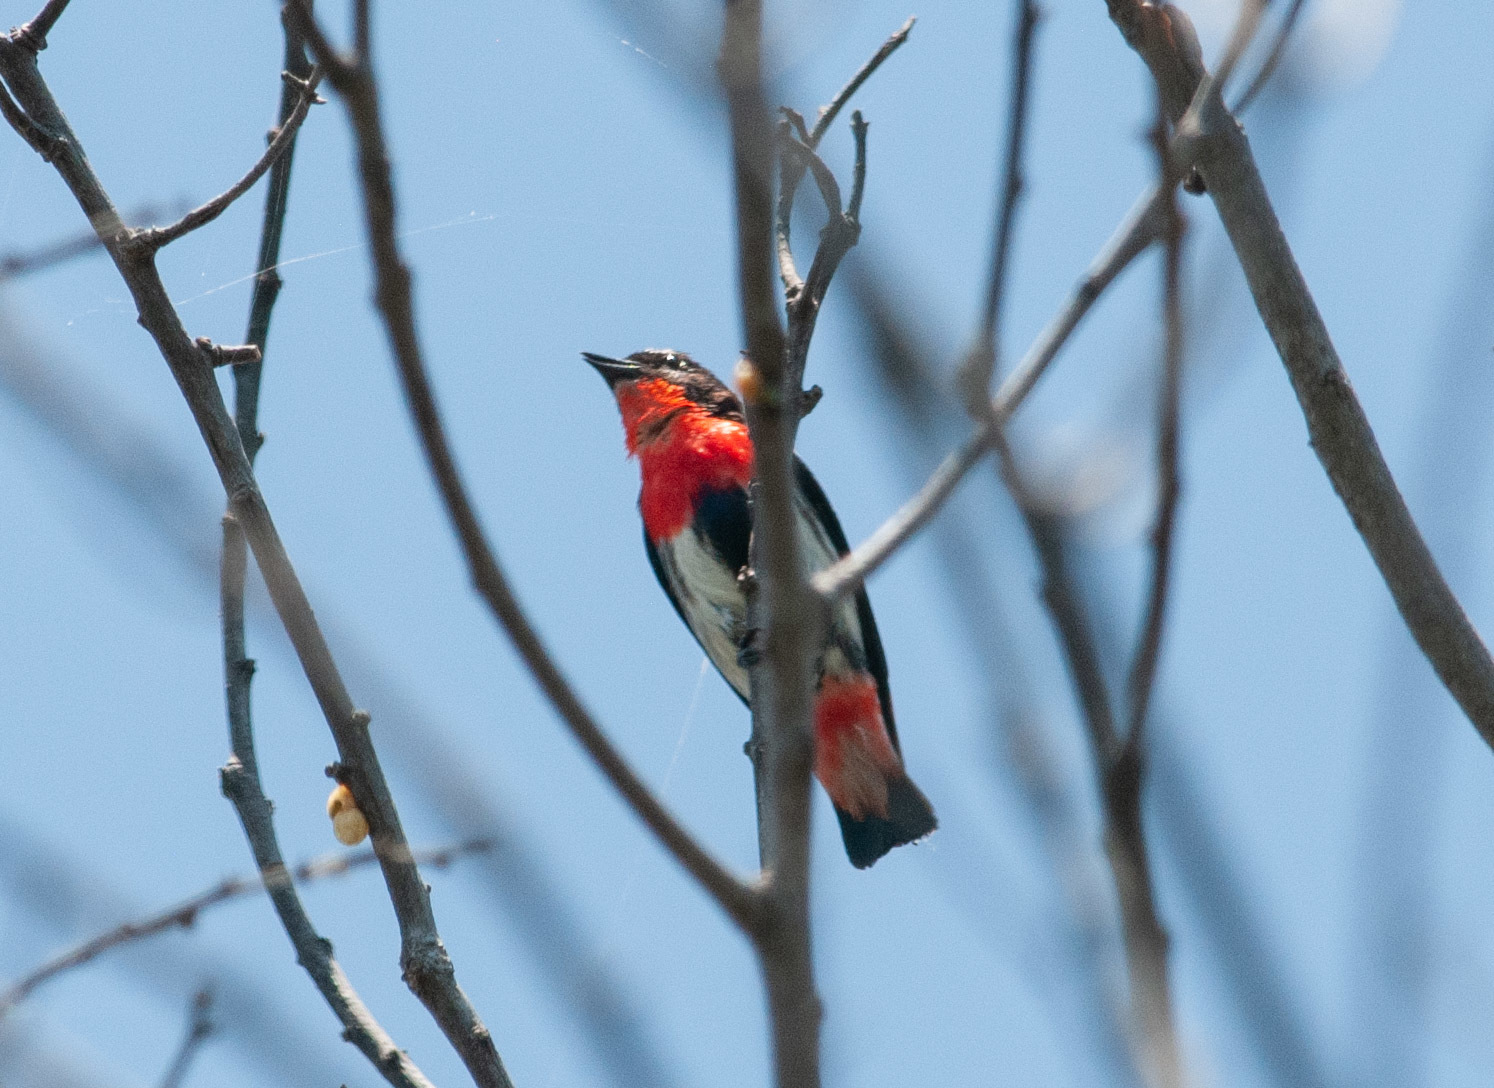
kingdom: Animalia
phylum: Chordata
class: Aves
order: Passeriformes
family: Dicaeidae
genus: Dicaeum
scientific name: Dicaeum hirundinaceum
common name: Mistletoebird
